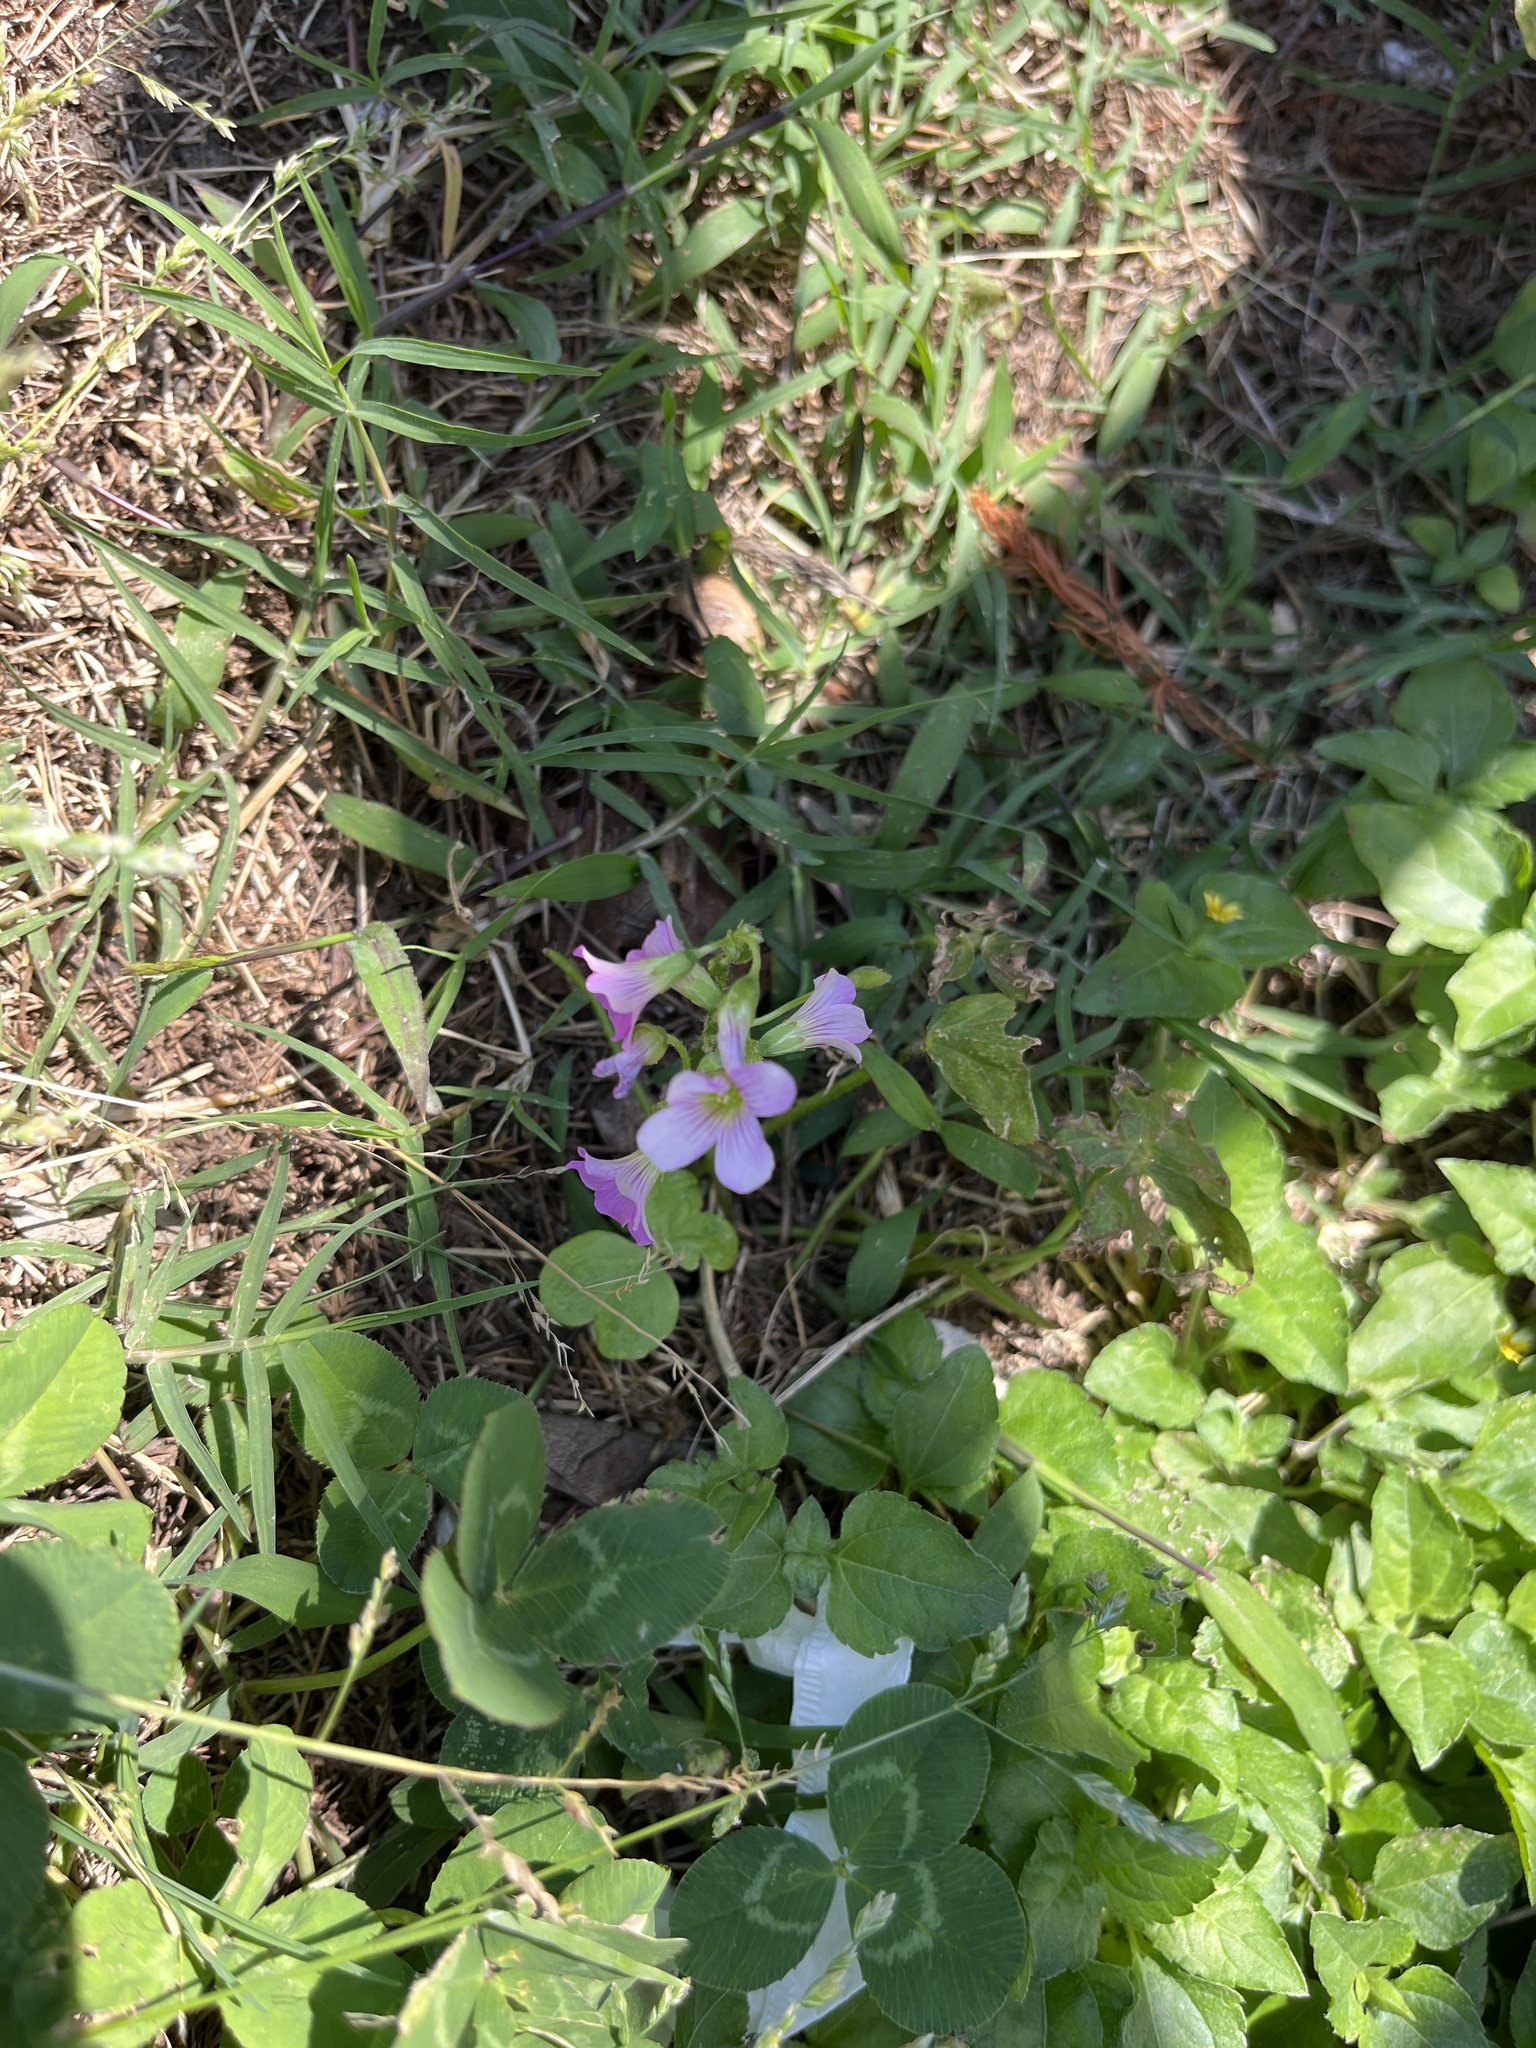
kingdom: Plantae
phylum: Tracheophyta
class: Magnoliopsida
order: Oxalidales
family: Oxalidaceae
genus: Oxalis
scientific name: Oxalis debilis
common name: Large-flowered pink-sorrel
